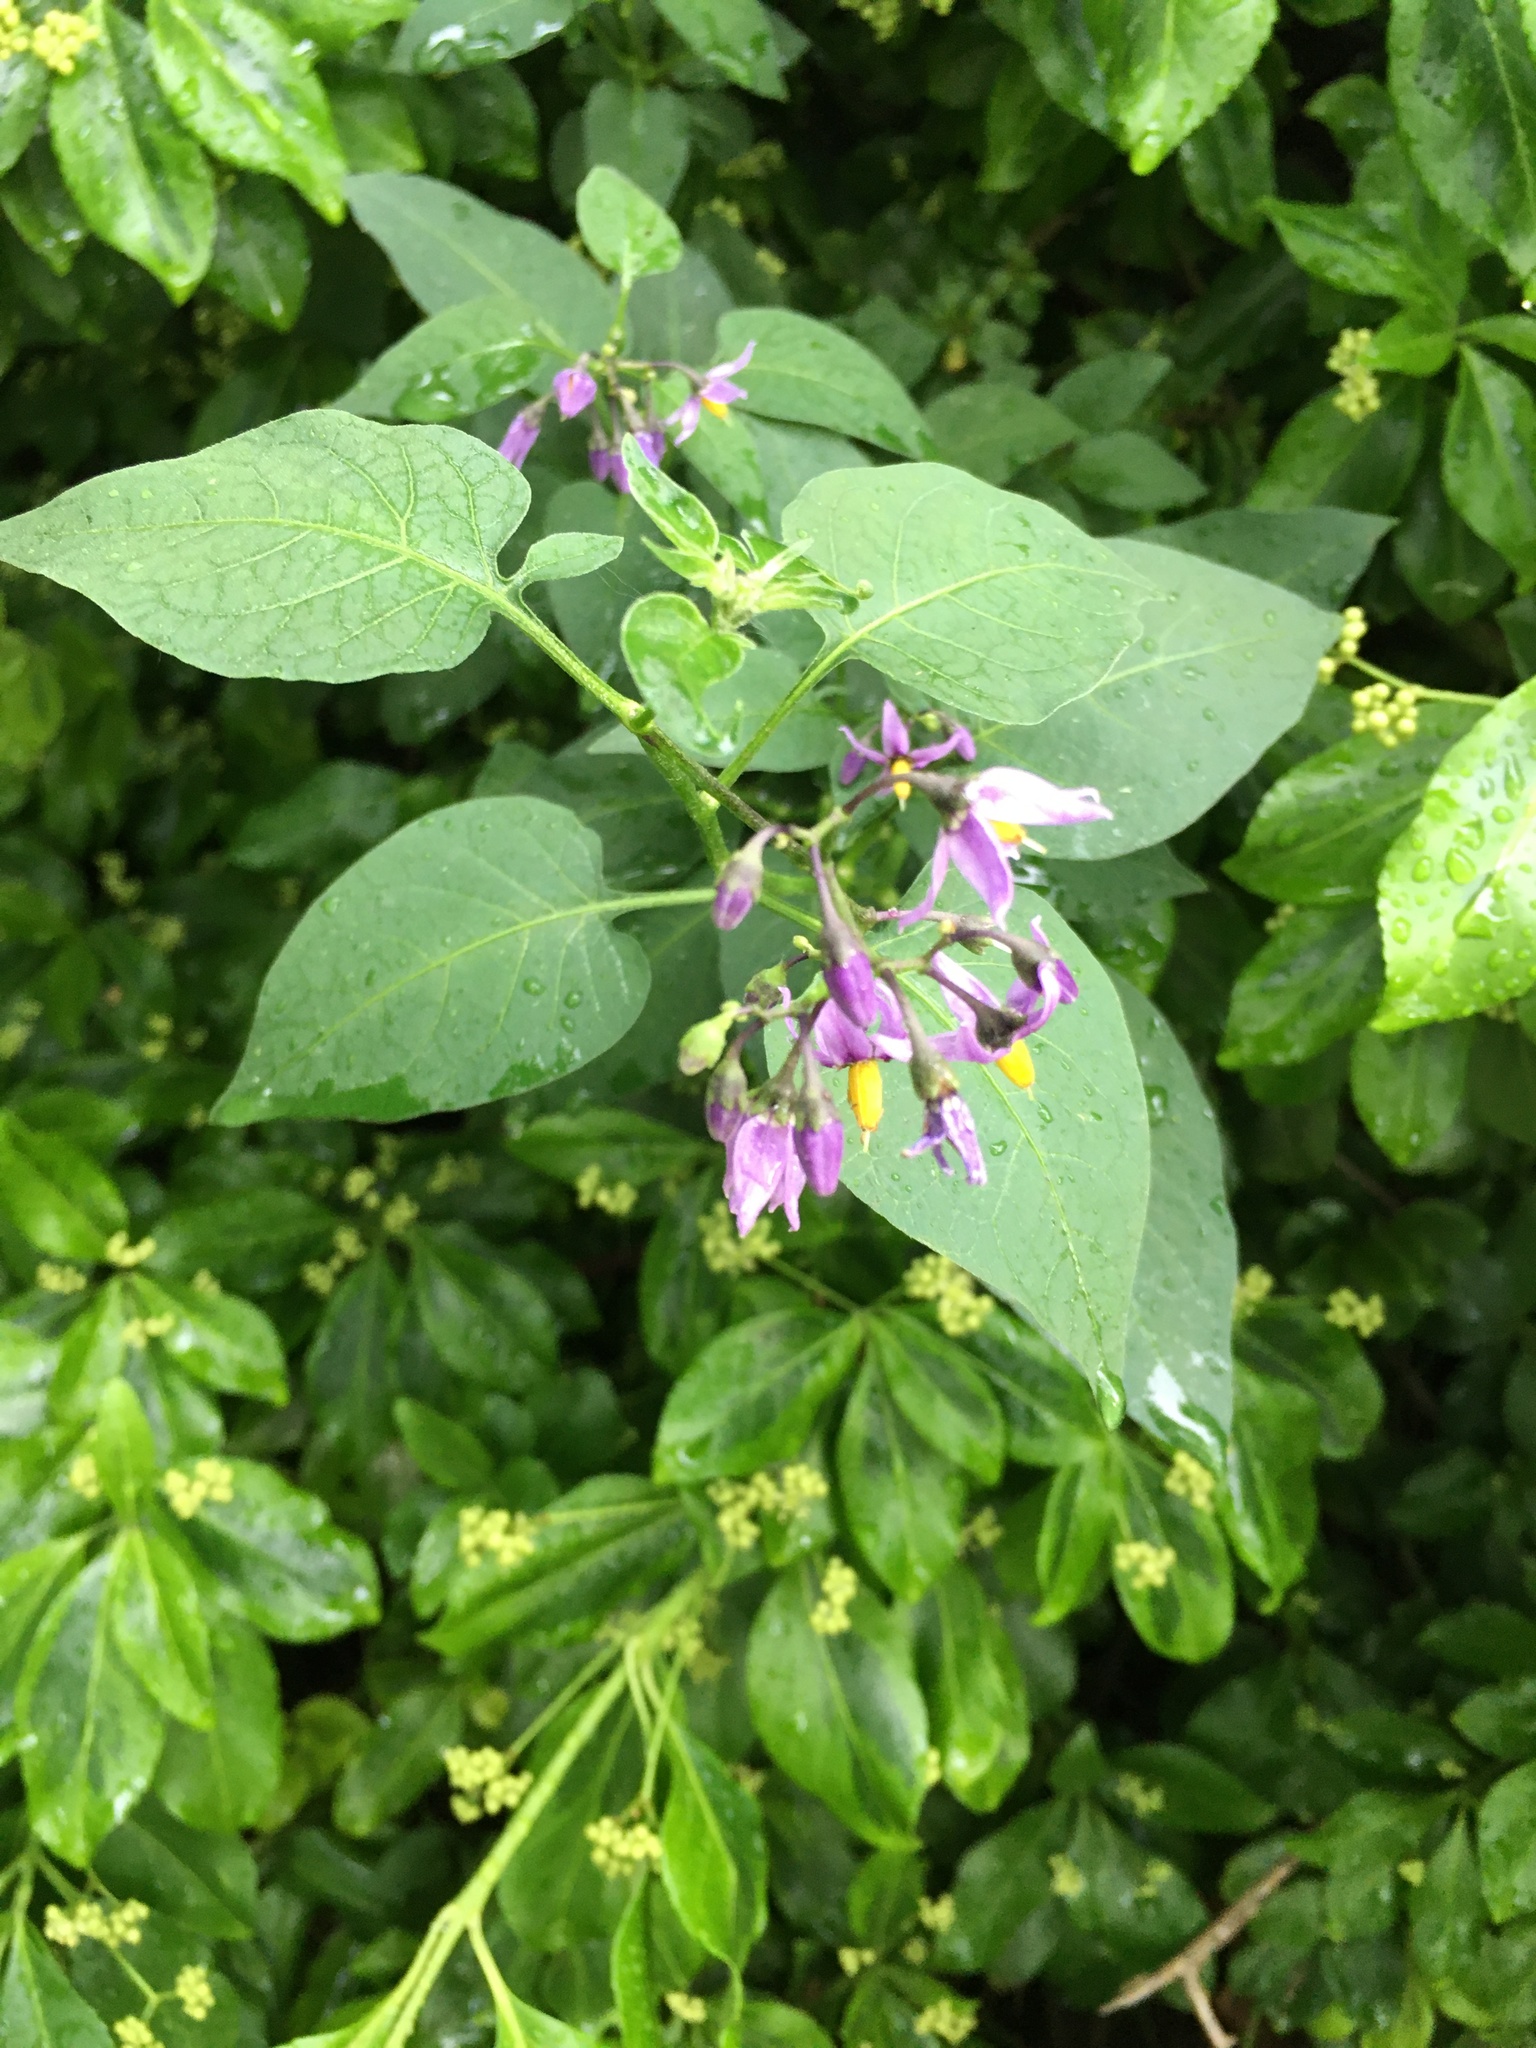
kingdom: Plantae
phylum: Tracheophyta
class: Magnoliopsida
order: Solanales
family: Solanaceae
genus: Solanum
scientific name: Solanum dulcamara
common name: Climbing nightshade
